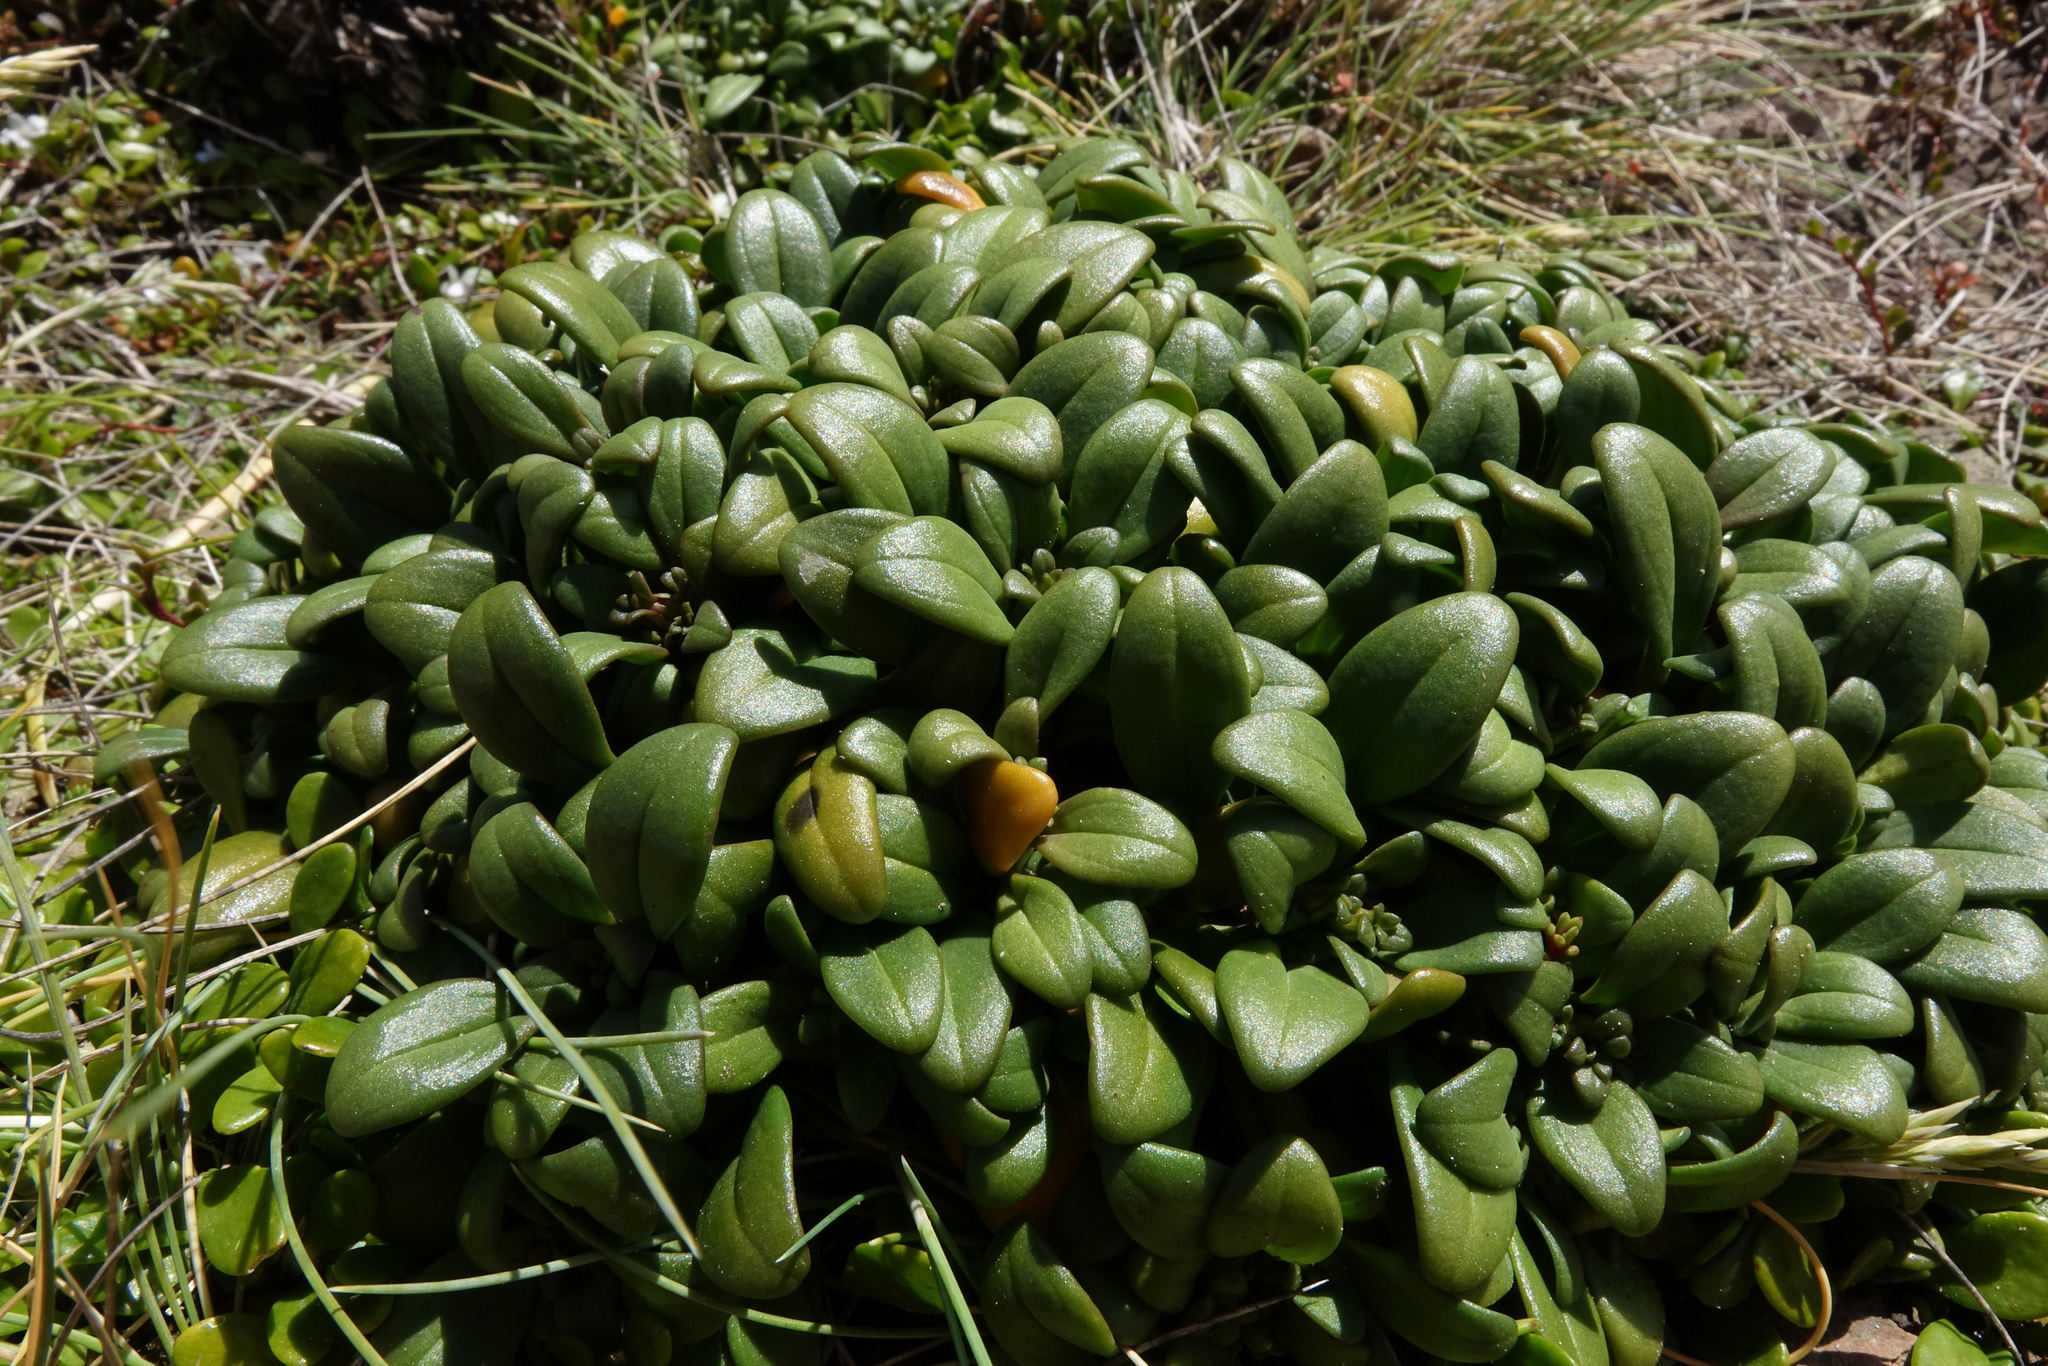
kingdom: Plantae
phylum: Tracheophyta
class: Magnoliopsida
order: Gentianales
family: Gentianaceae
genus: Gentianella
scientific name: Gentianella saxosa
